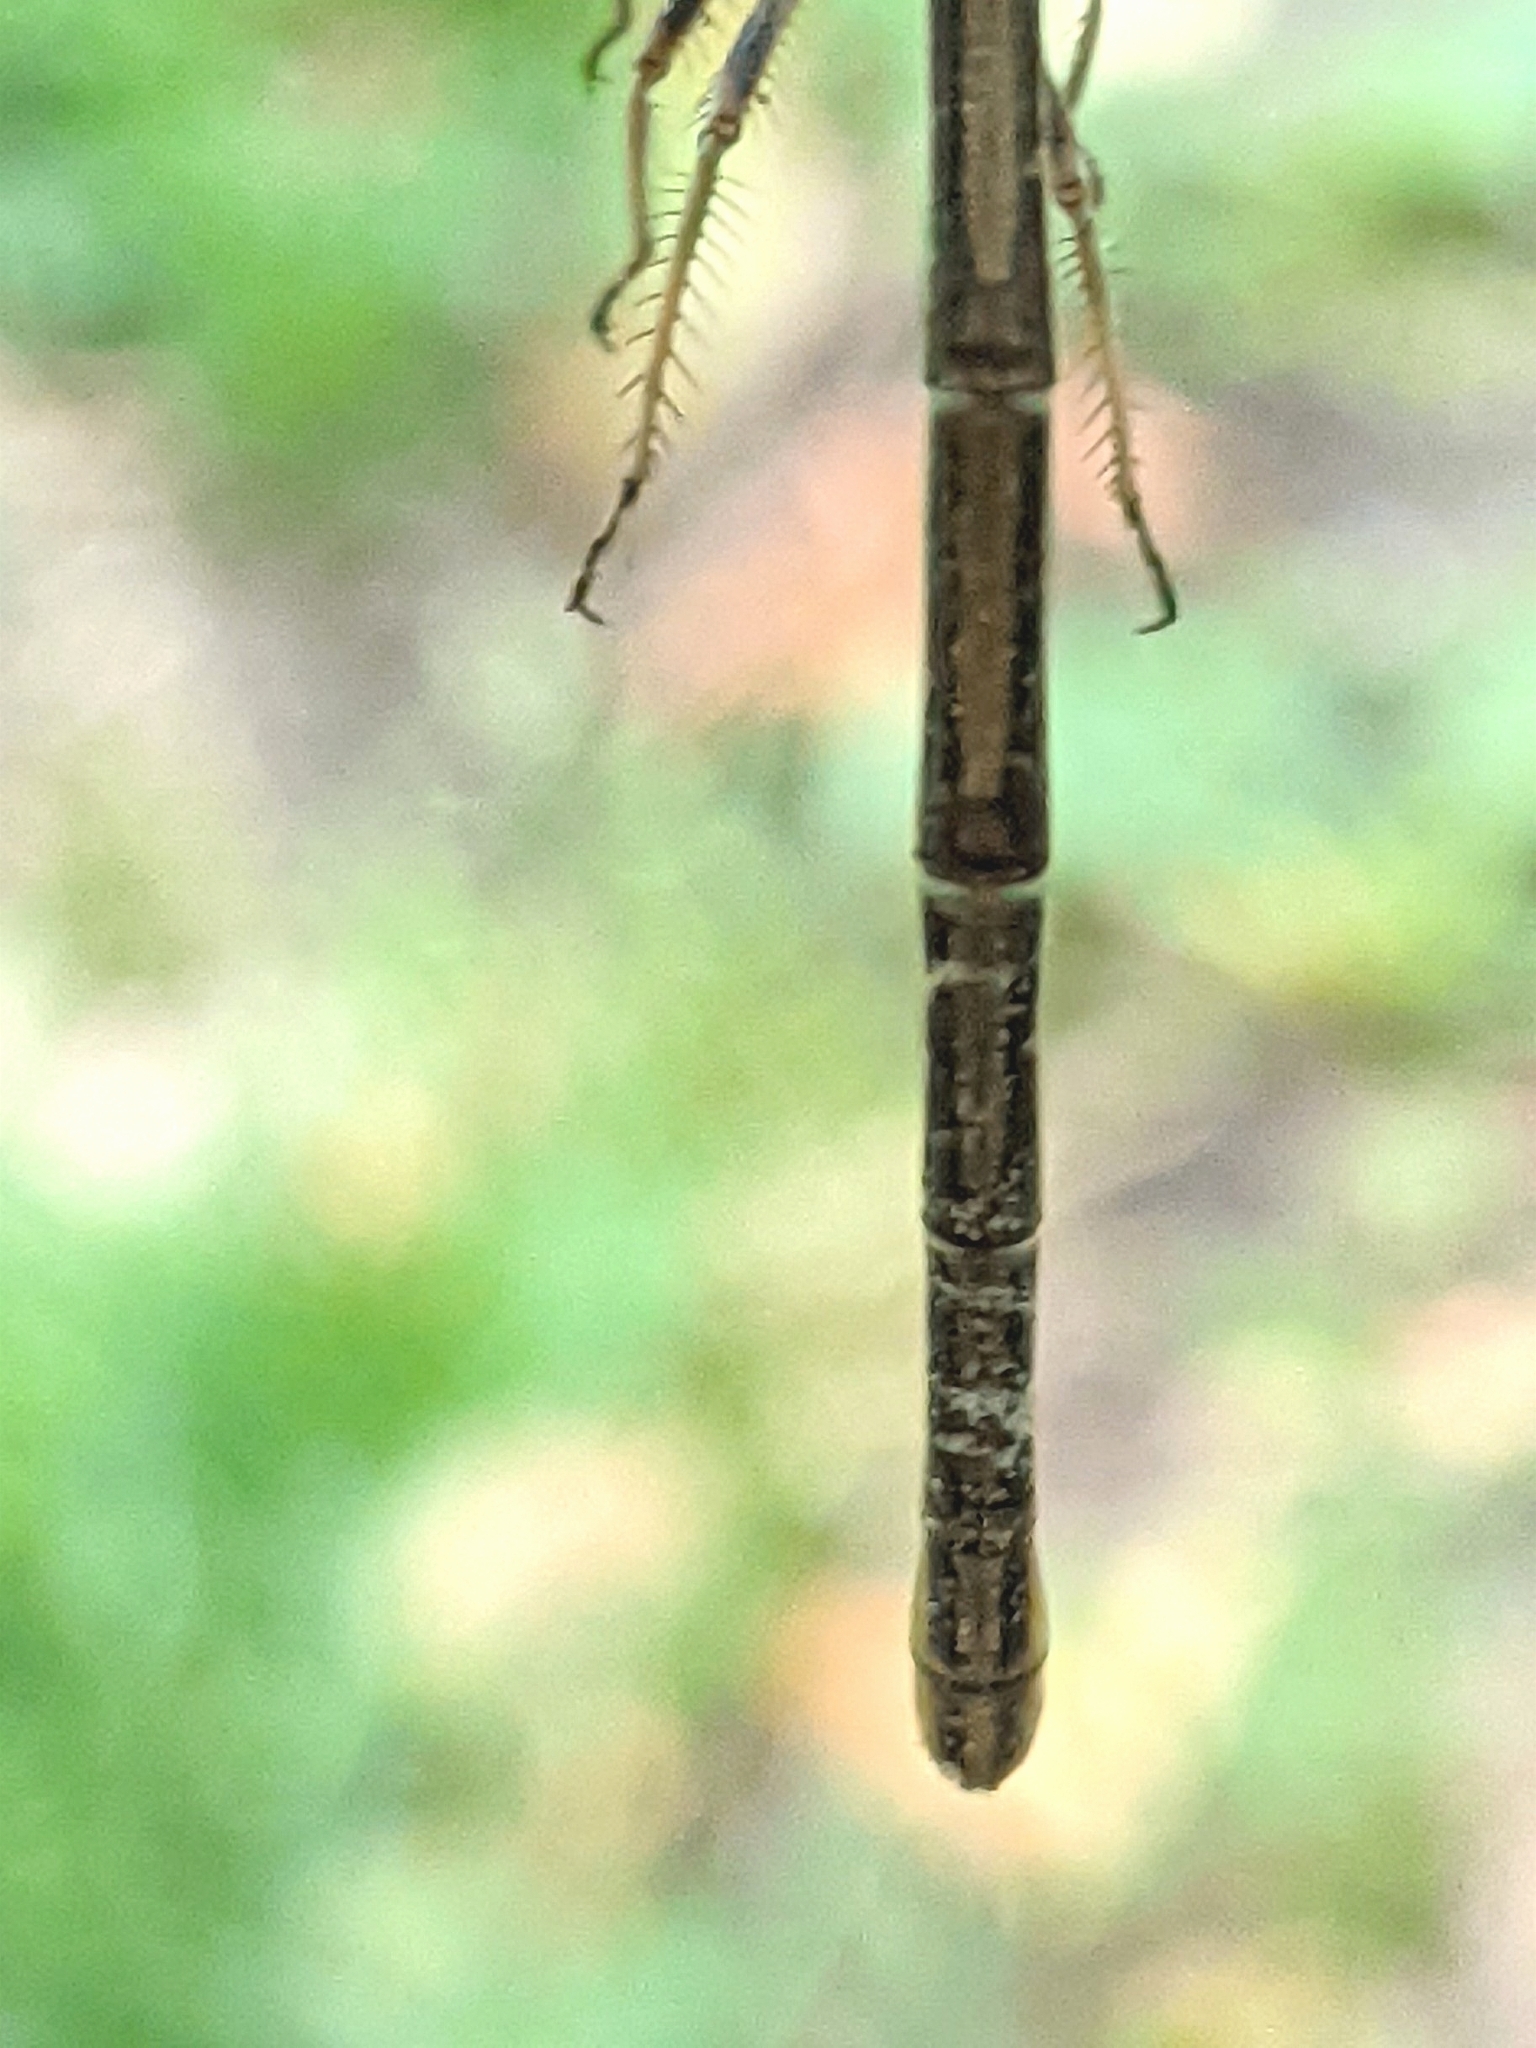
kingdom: Animalia
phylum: Arthropoda
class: Insecta
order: Odonata
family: Coenagrionidae
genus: Argia
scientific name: Argia moesta
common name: Powdered dancer
